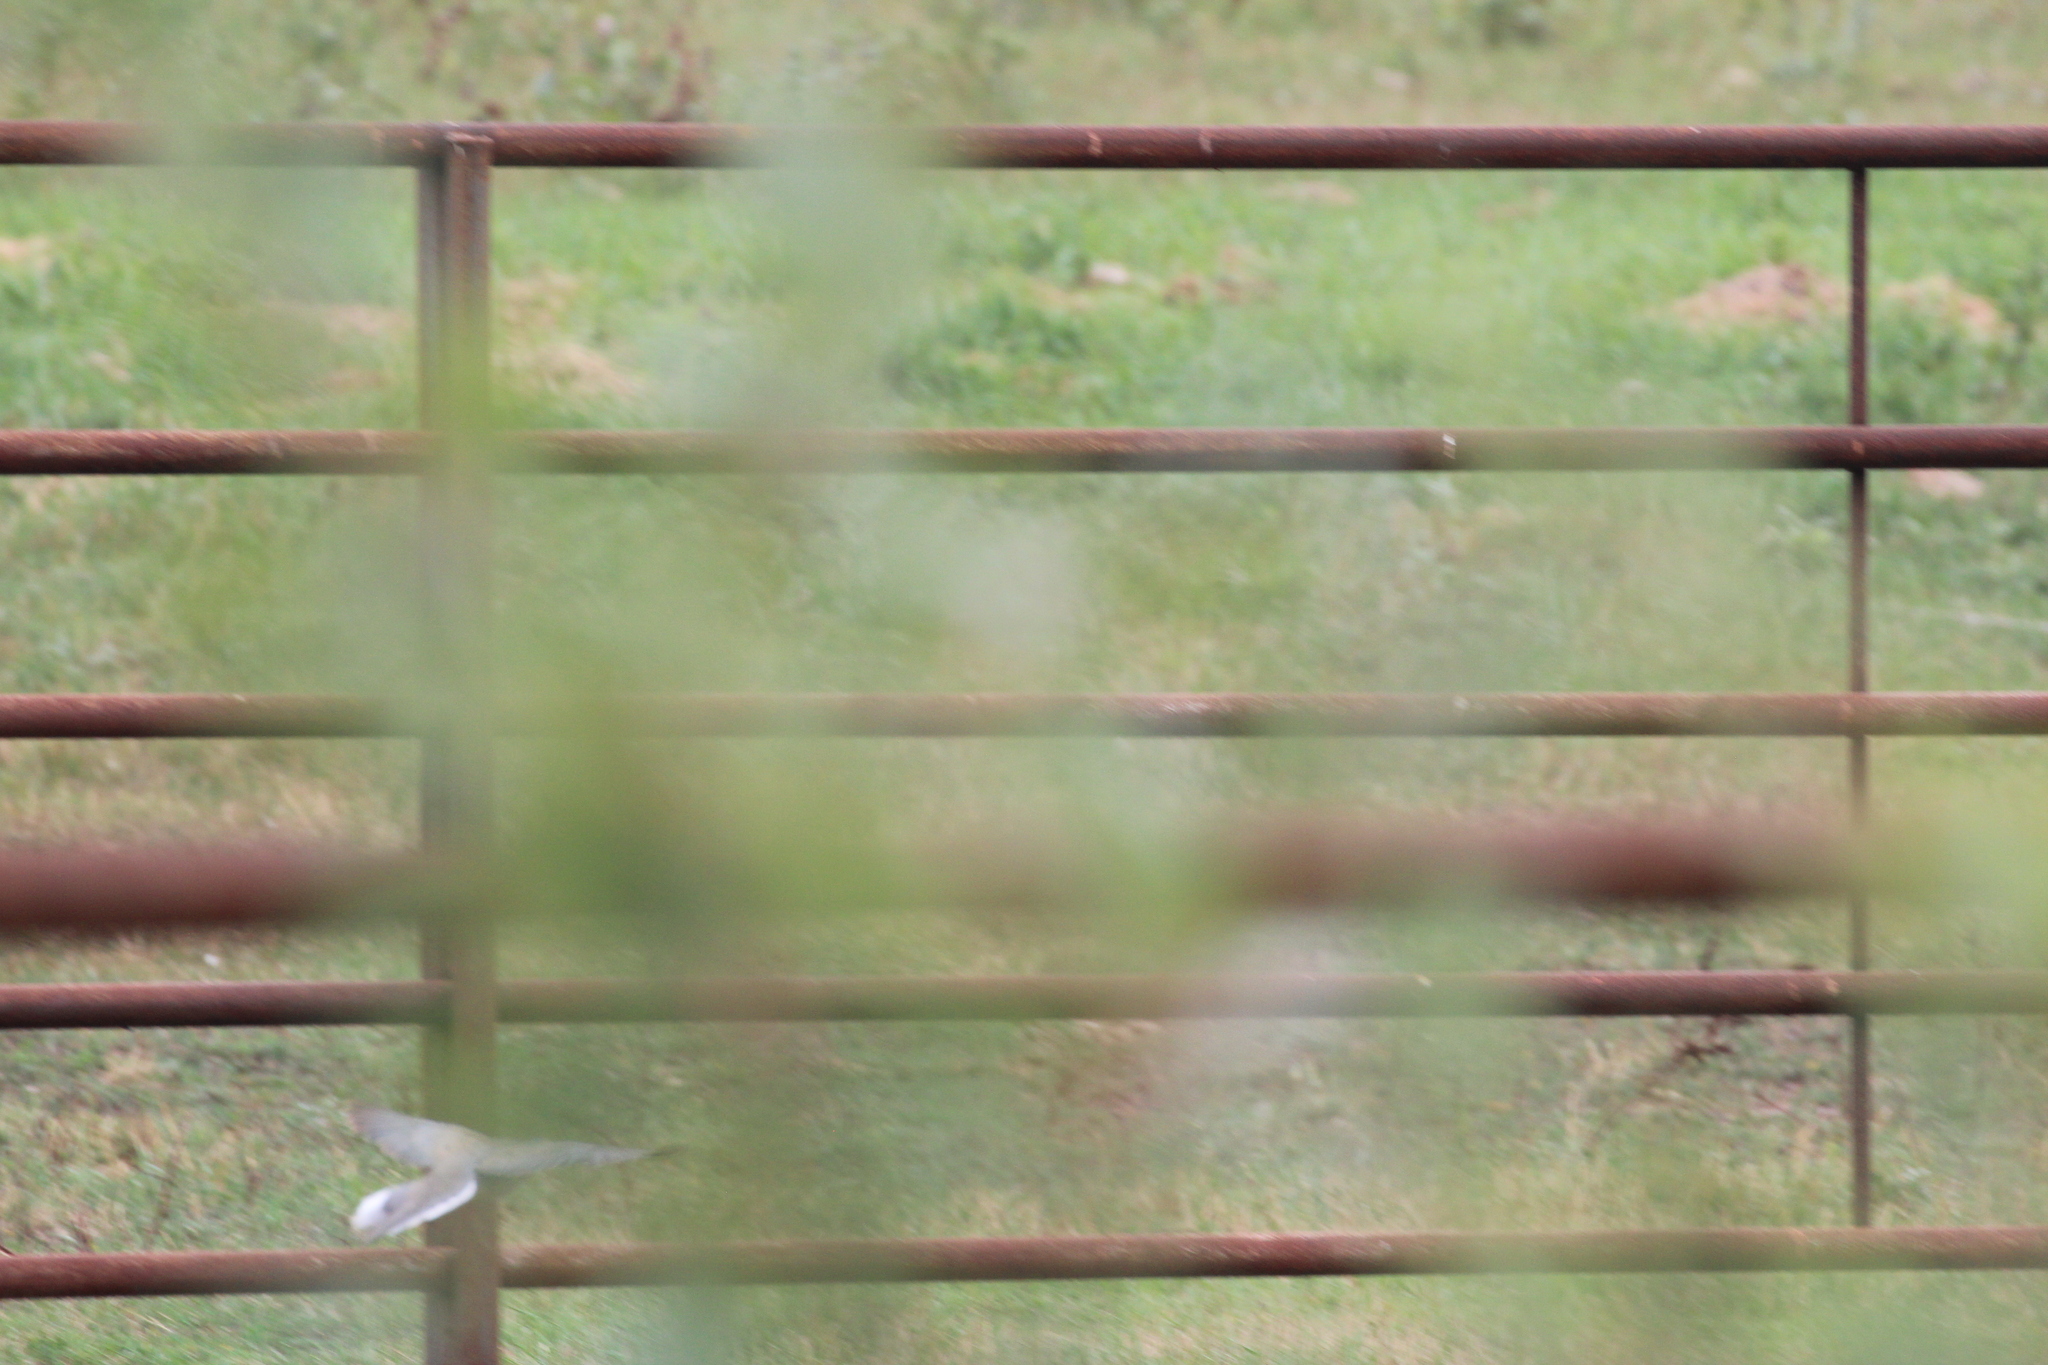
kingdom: Animalia
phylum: Chordata
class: Aves
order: Columbiformes
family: Columbidae
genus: Zenaida
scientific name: Zenaida macroura
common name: Mourning dove
